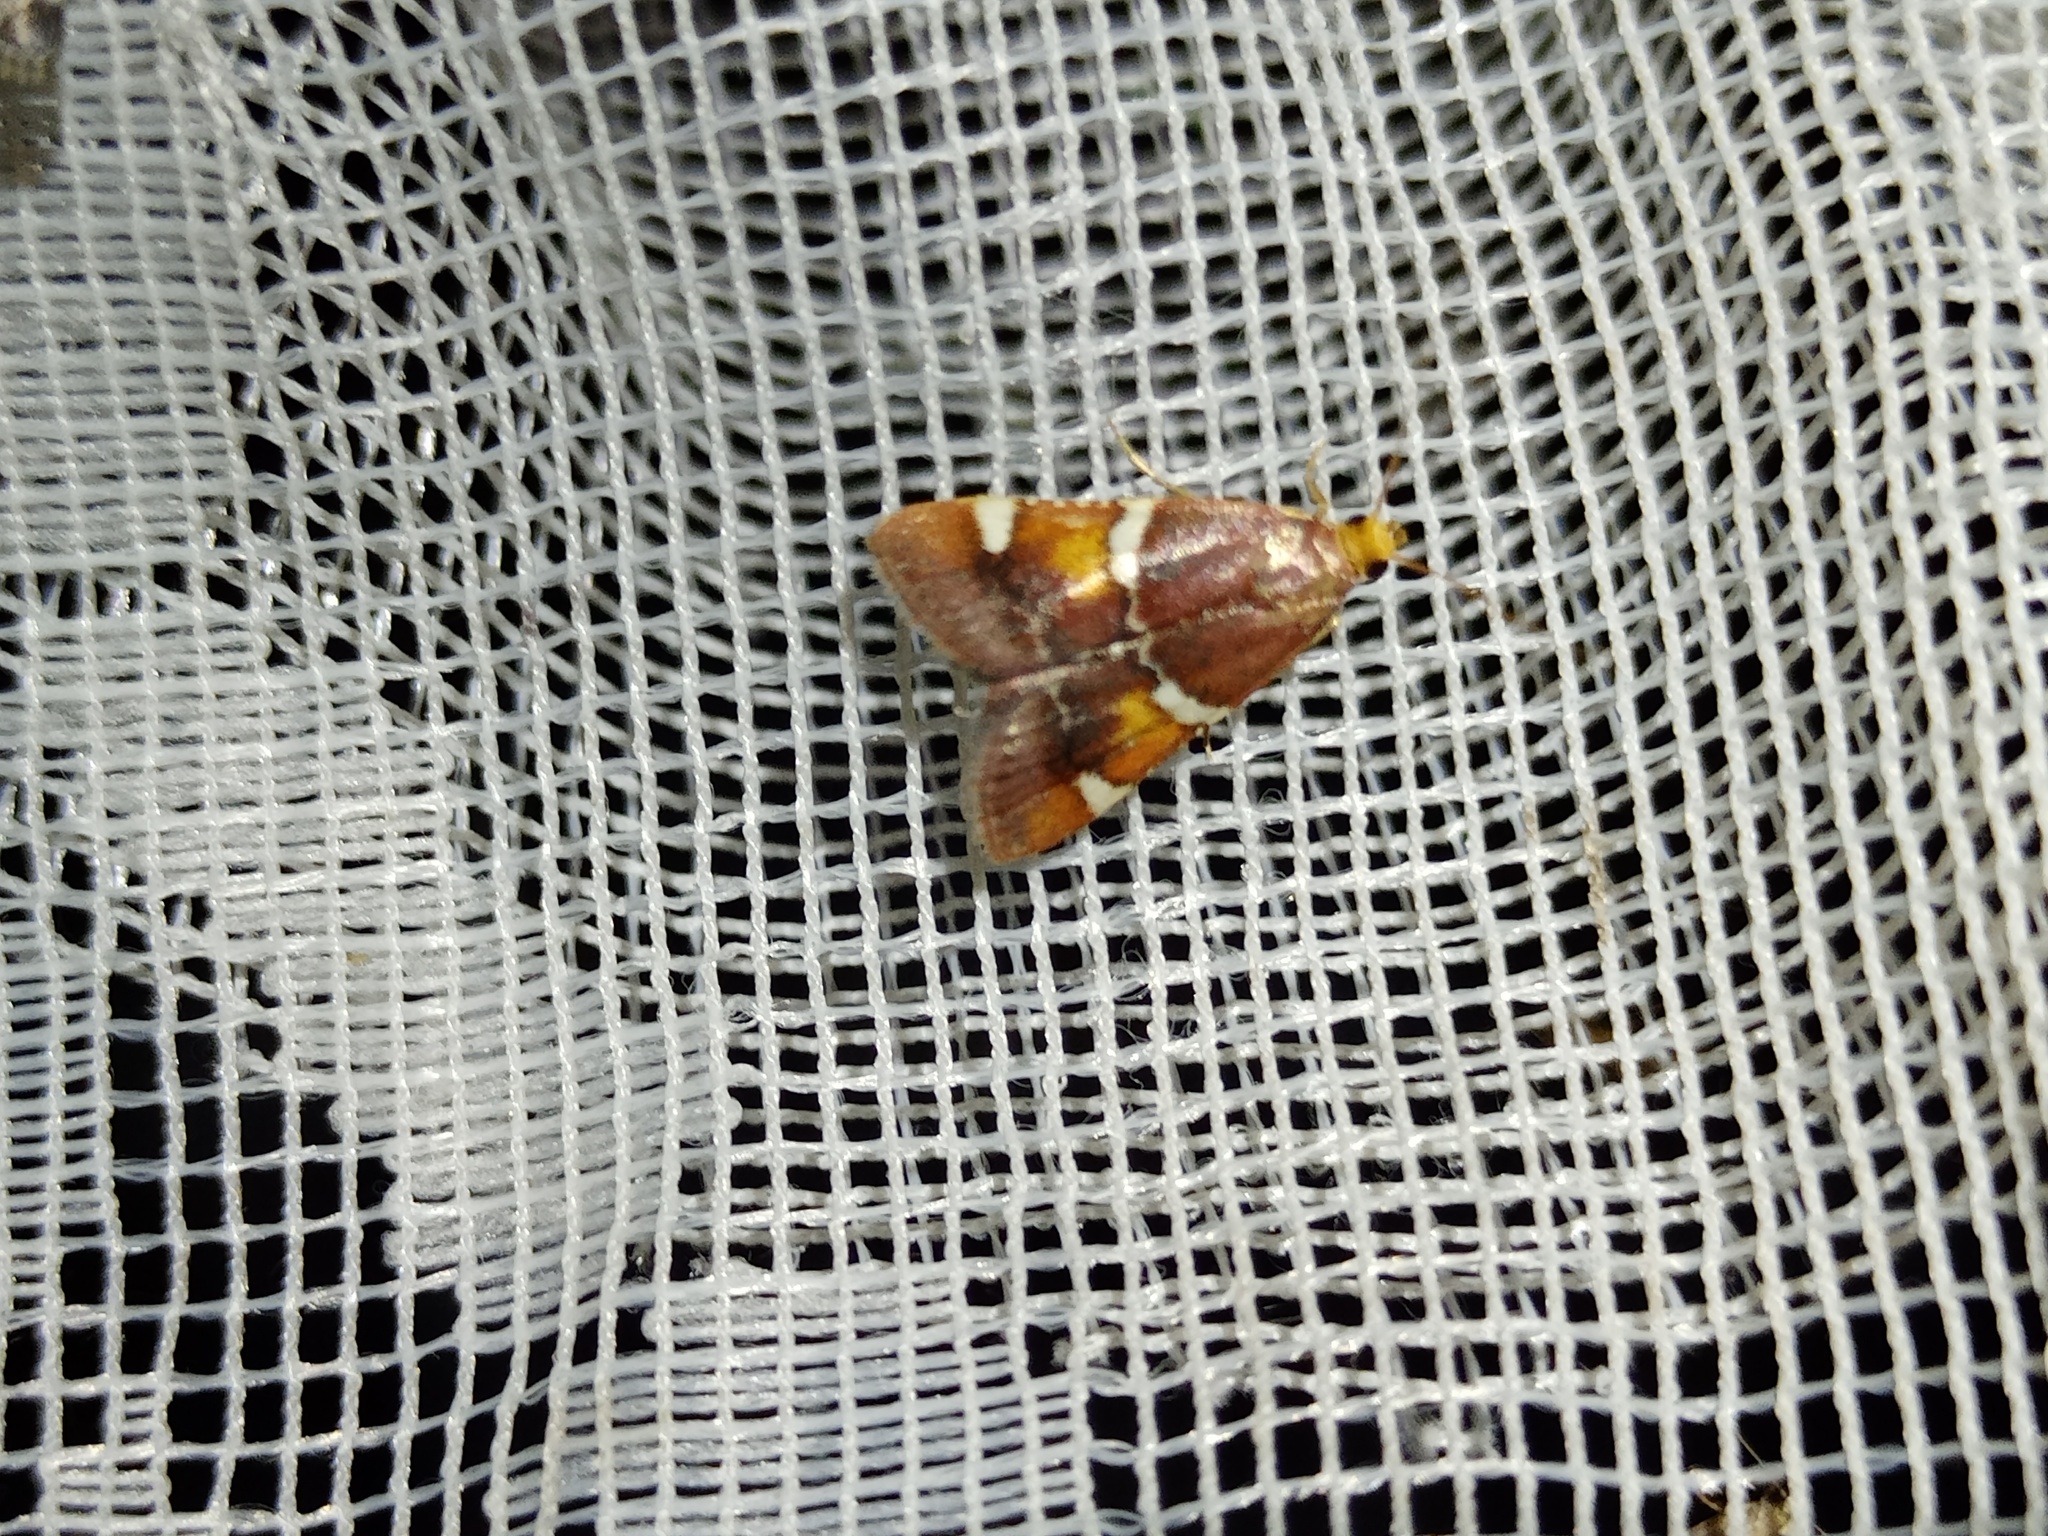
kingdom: Animalia
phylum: Arthropoda
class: Insecta
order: Lepidoptera
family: Pyralidae
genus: Pyralis
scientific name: Pyralis regalis
